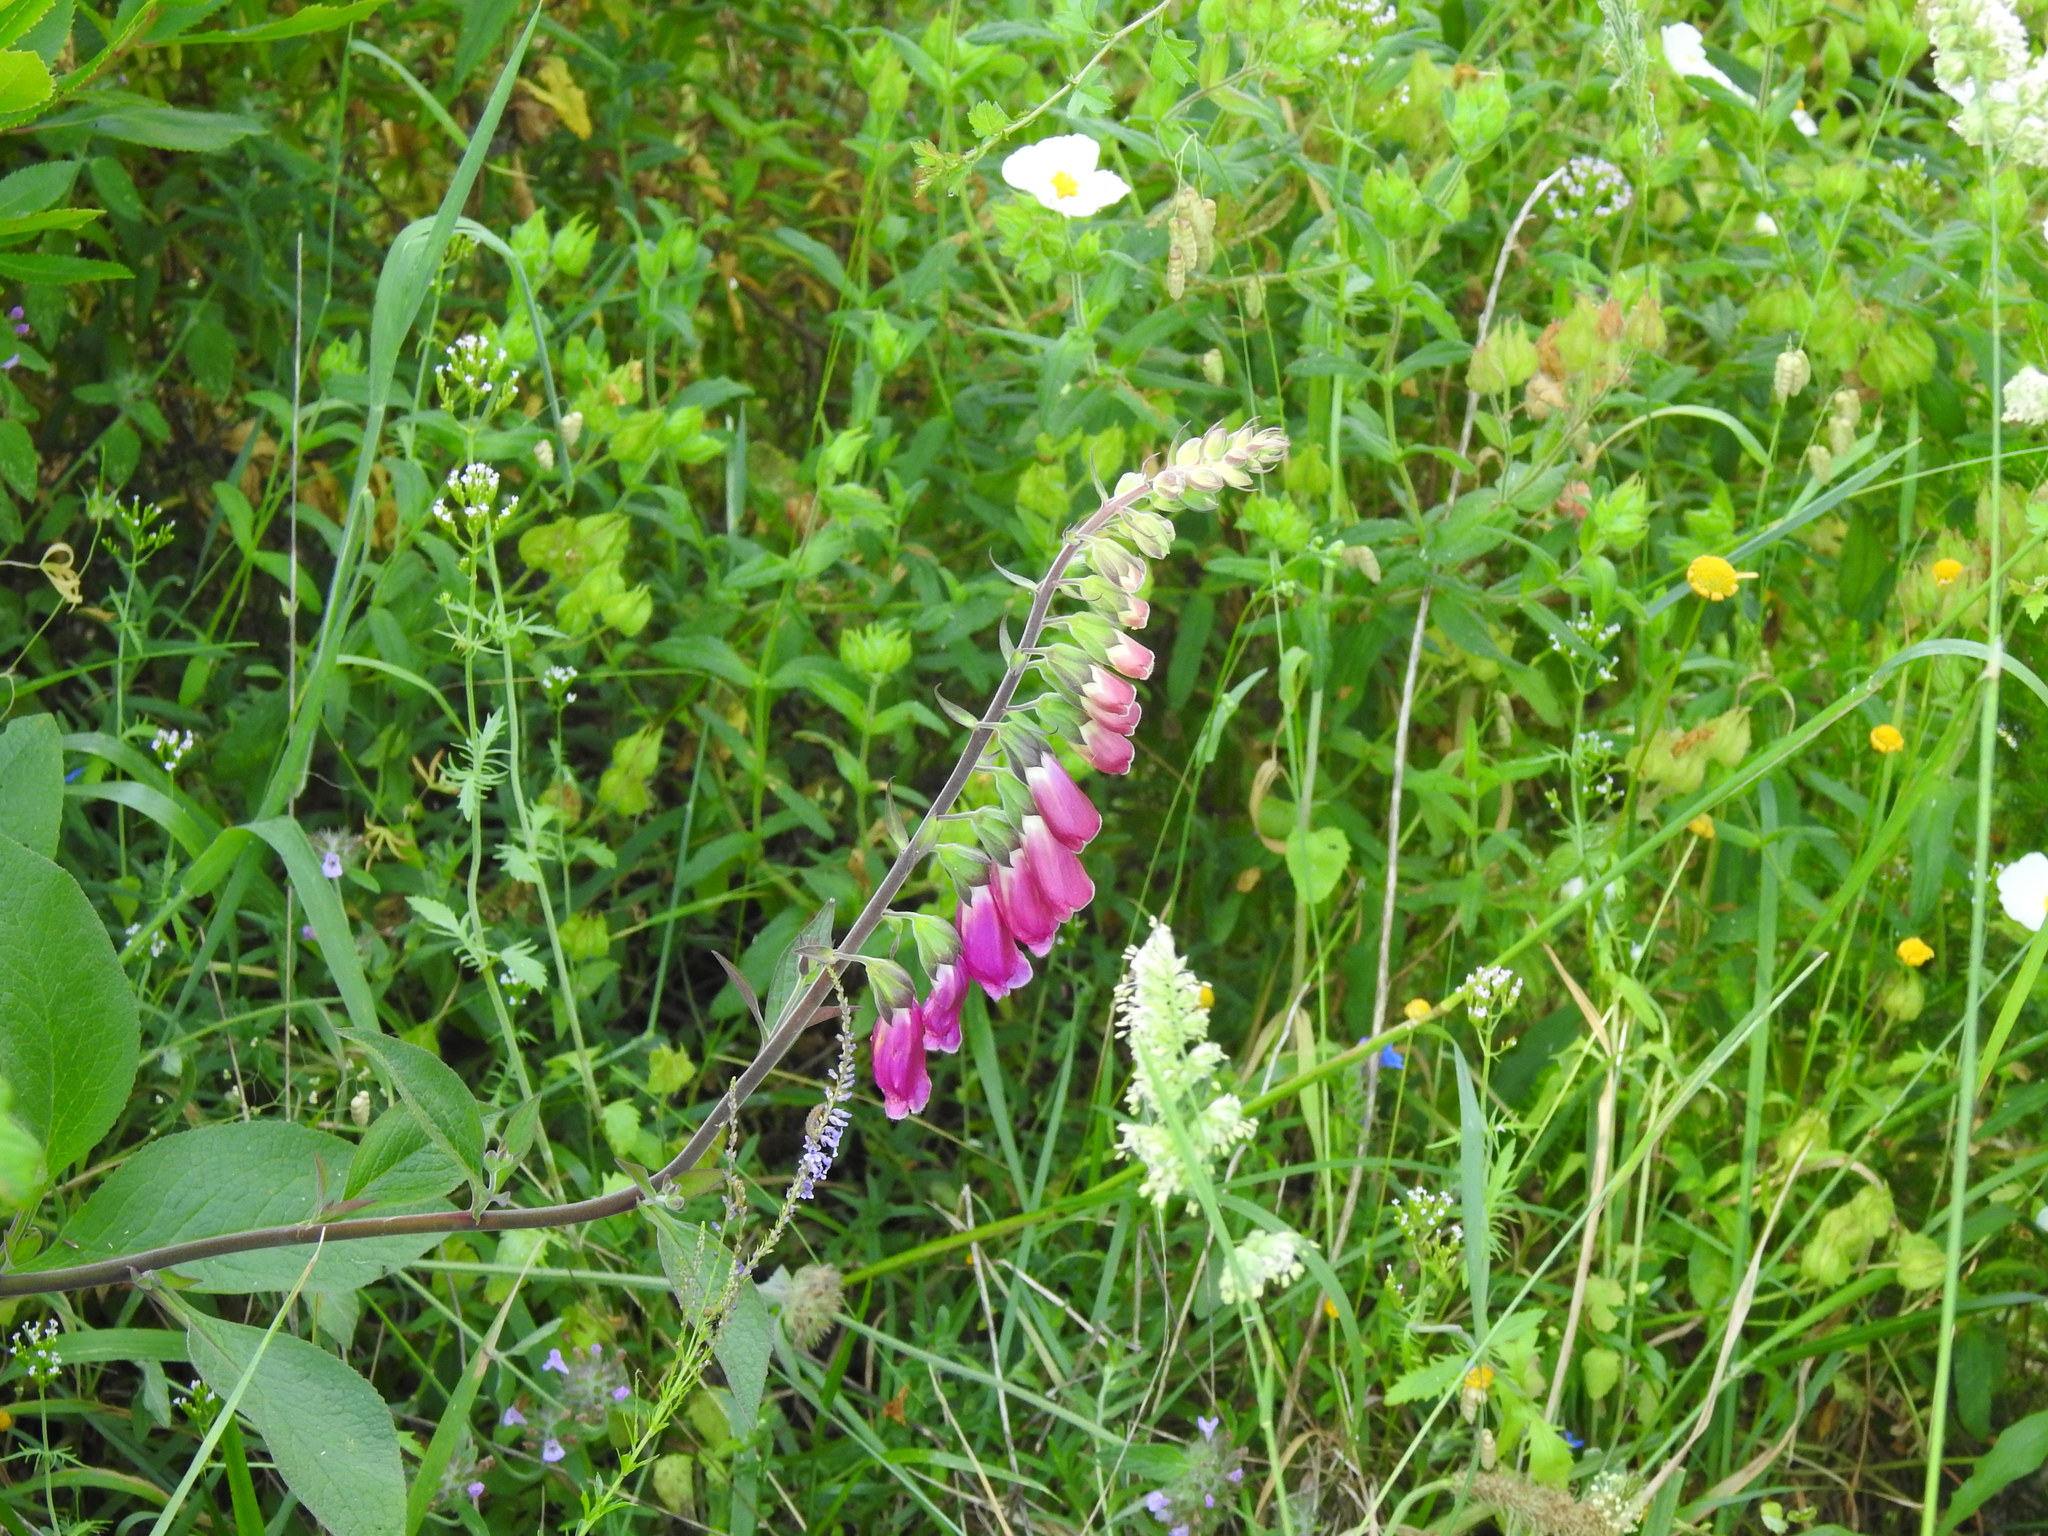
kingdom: Plantae
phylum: Tracheophyta
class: Magnoliopsida
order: Lamiales
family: Plantaginaceae
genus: Digitalis
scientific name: Digitalis purpurea
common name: Foxglove
